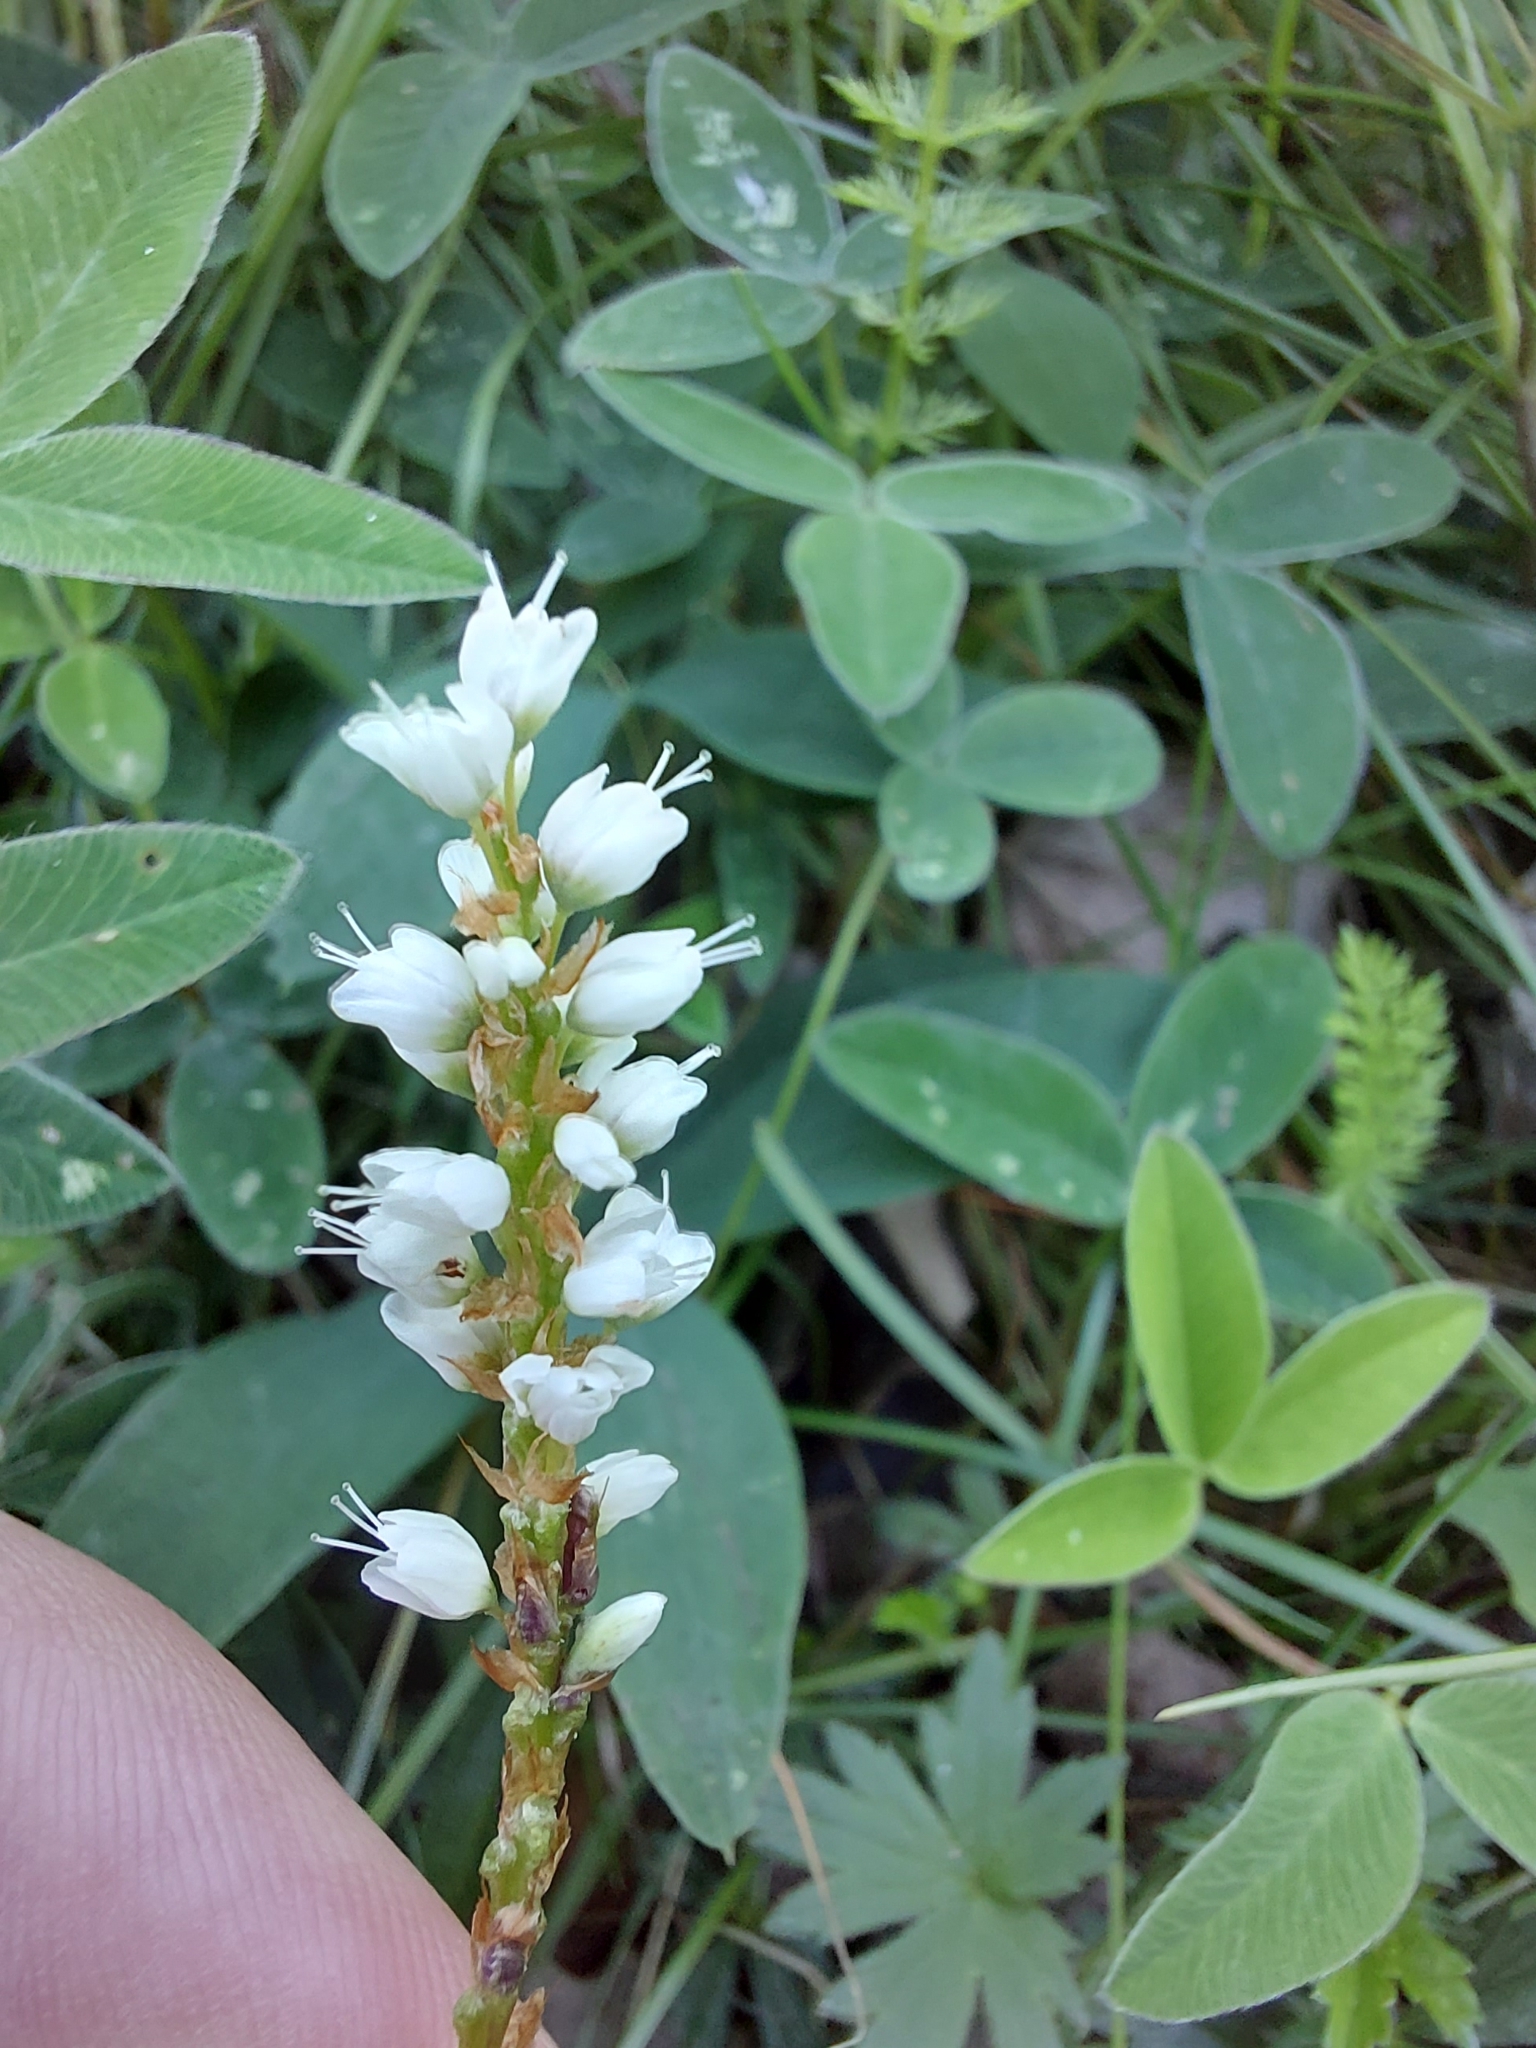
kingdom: Plantae
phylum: Tracheophyta
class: Magnoliopsida
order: Caryophyllales
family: Polygonaceae
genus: Bistorta
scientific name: Bistorta vivipara
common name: Alpine bistort
